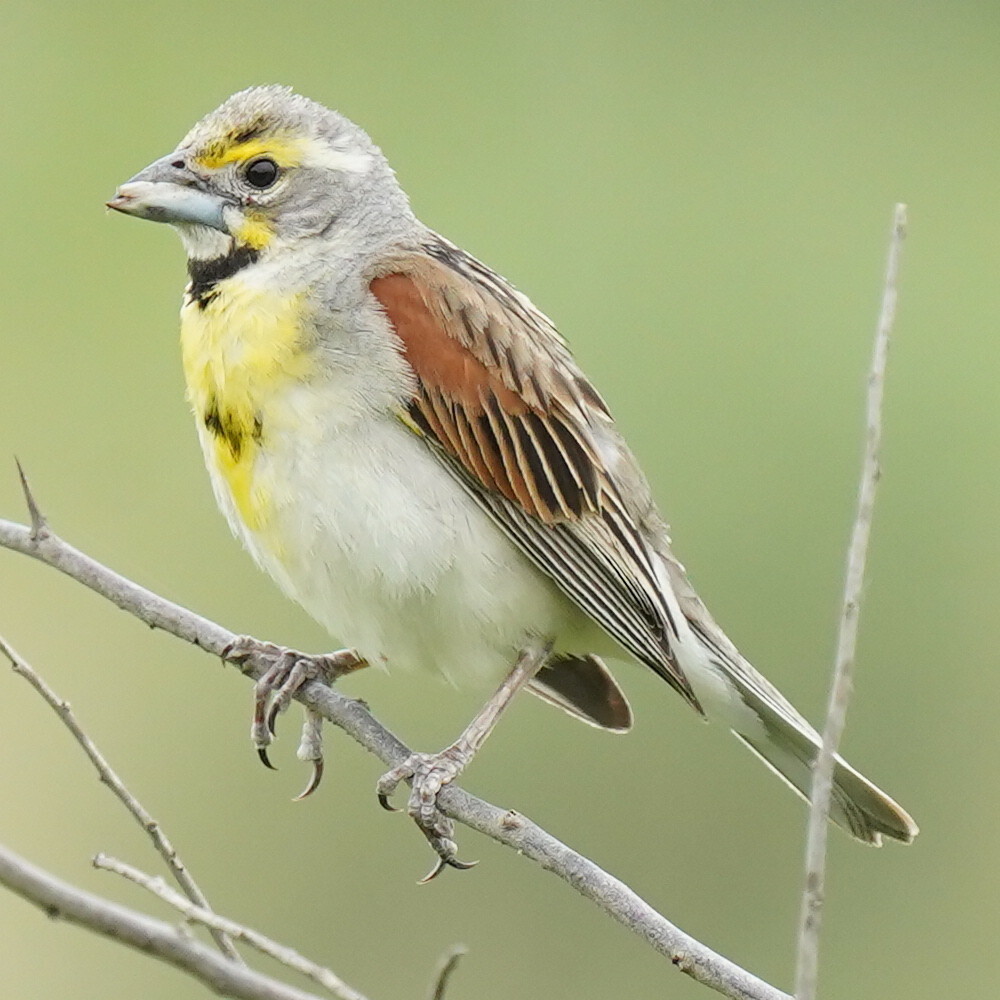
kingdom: Animalia
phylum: Chordata
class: Aves
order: Passeriformes
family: Cardinalidae
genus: Spiza
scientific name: Spiza americana
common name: Dickcissel
